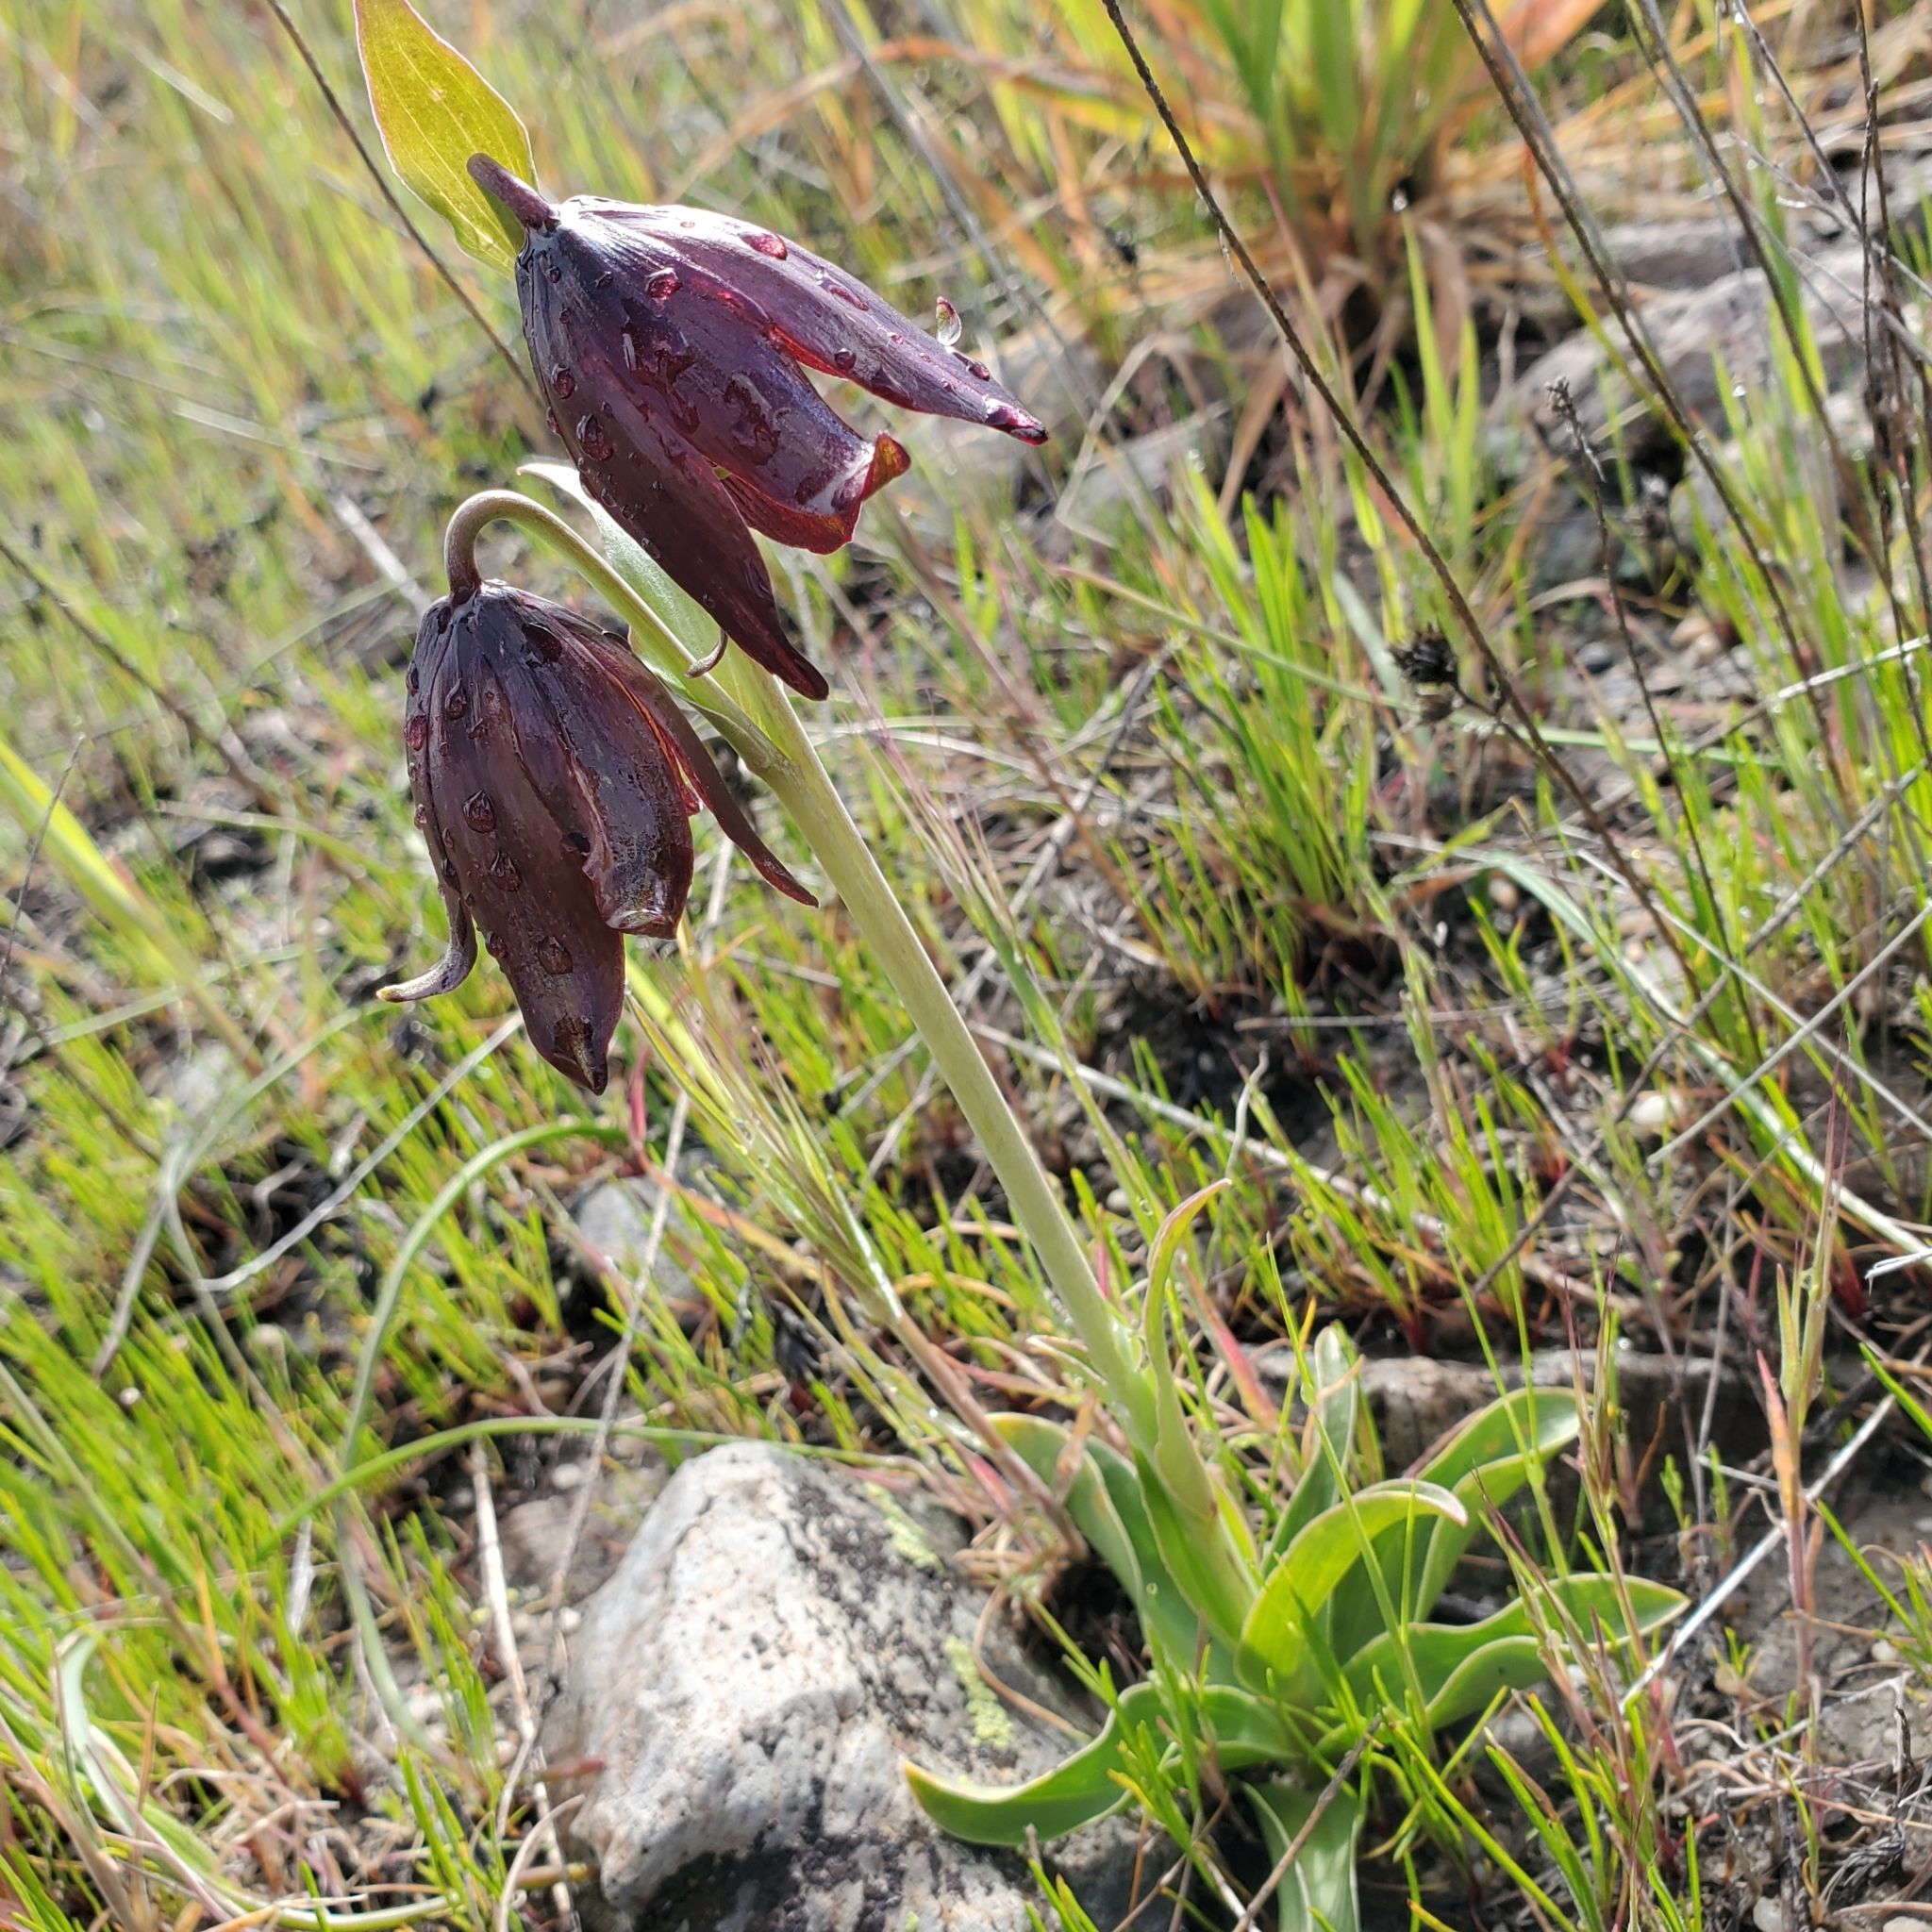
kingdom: Plantae
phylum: Tracheophyta
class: Liliopsida
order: Liliales
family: Liliaceae
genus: Fritillaria
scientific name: Fritillaria biflora
